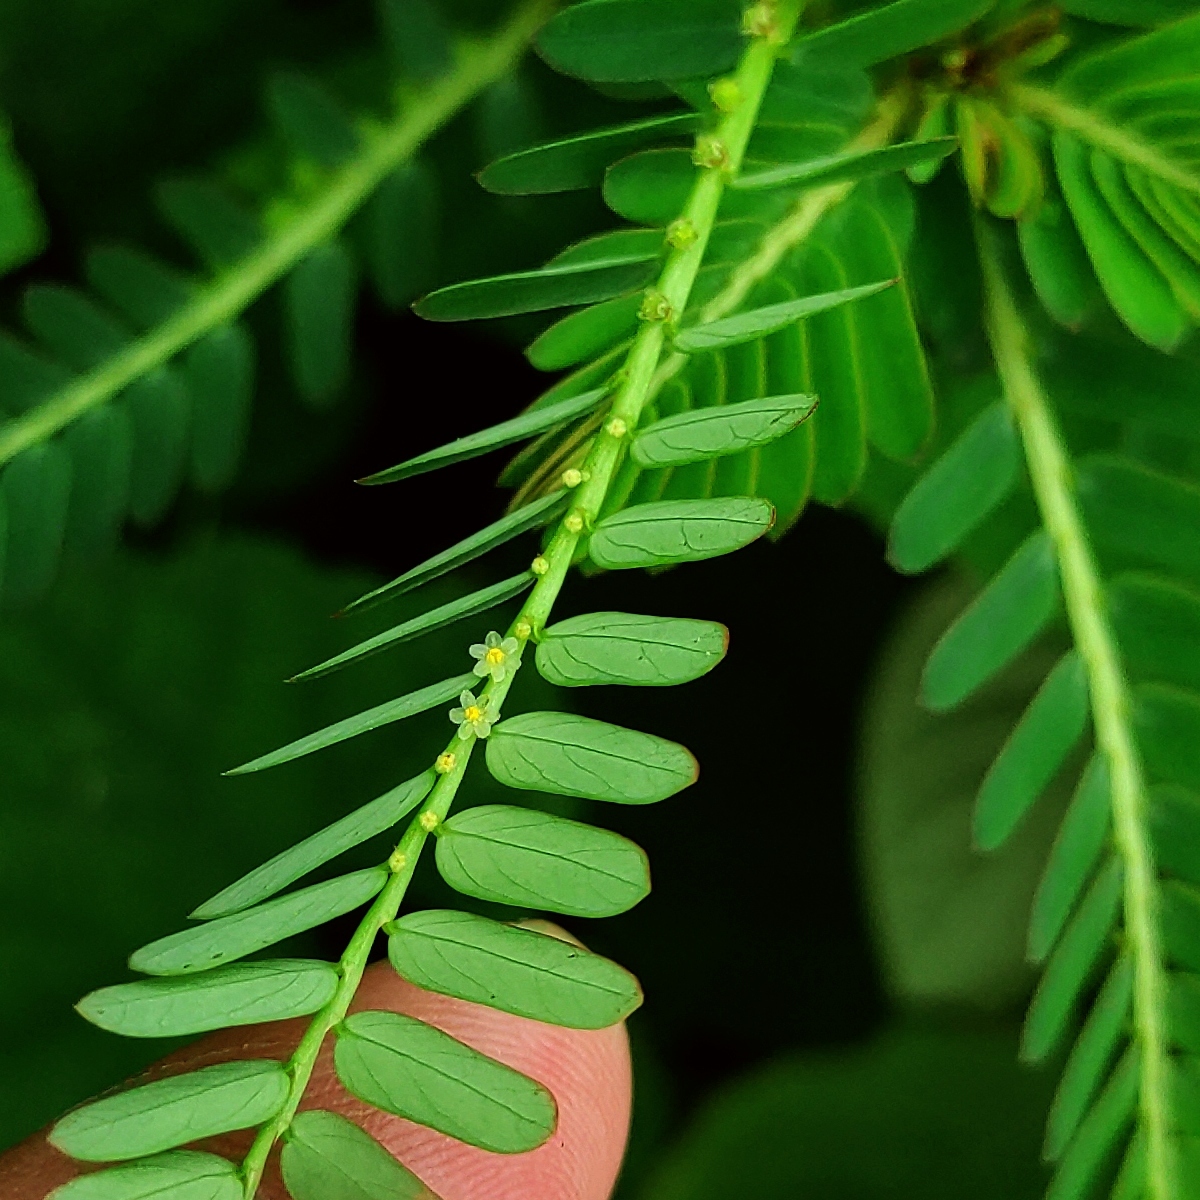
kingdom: Plantae
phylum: Tracheophyta
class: Magnoliopsida
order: Malpighiales
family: Phyllanthaceae
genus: Phyllanthus
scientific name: Phyllanthus urinaria
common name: Chamber bitter
